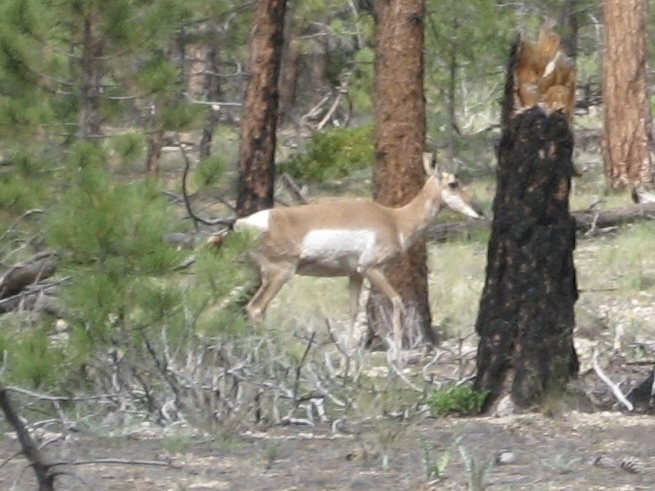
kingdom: Animalia
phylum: Chordata
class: Mammalia
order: Artiodactyla
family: Antilocapridae
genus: Antilocapra
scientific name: Antilocapra americana
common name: Pronghorn
